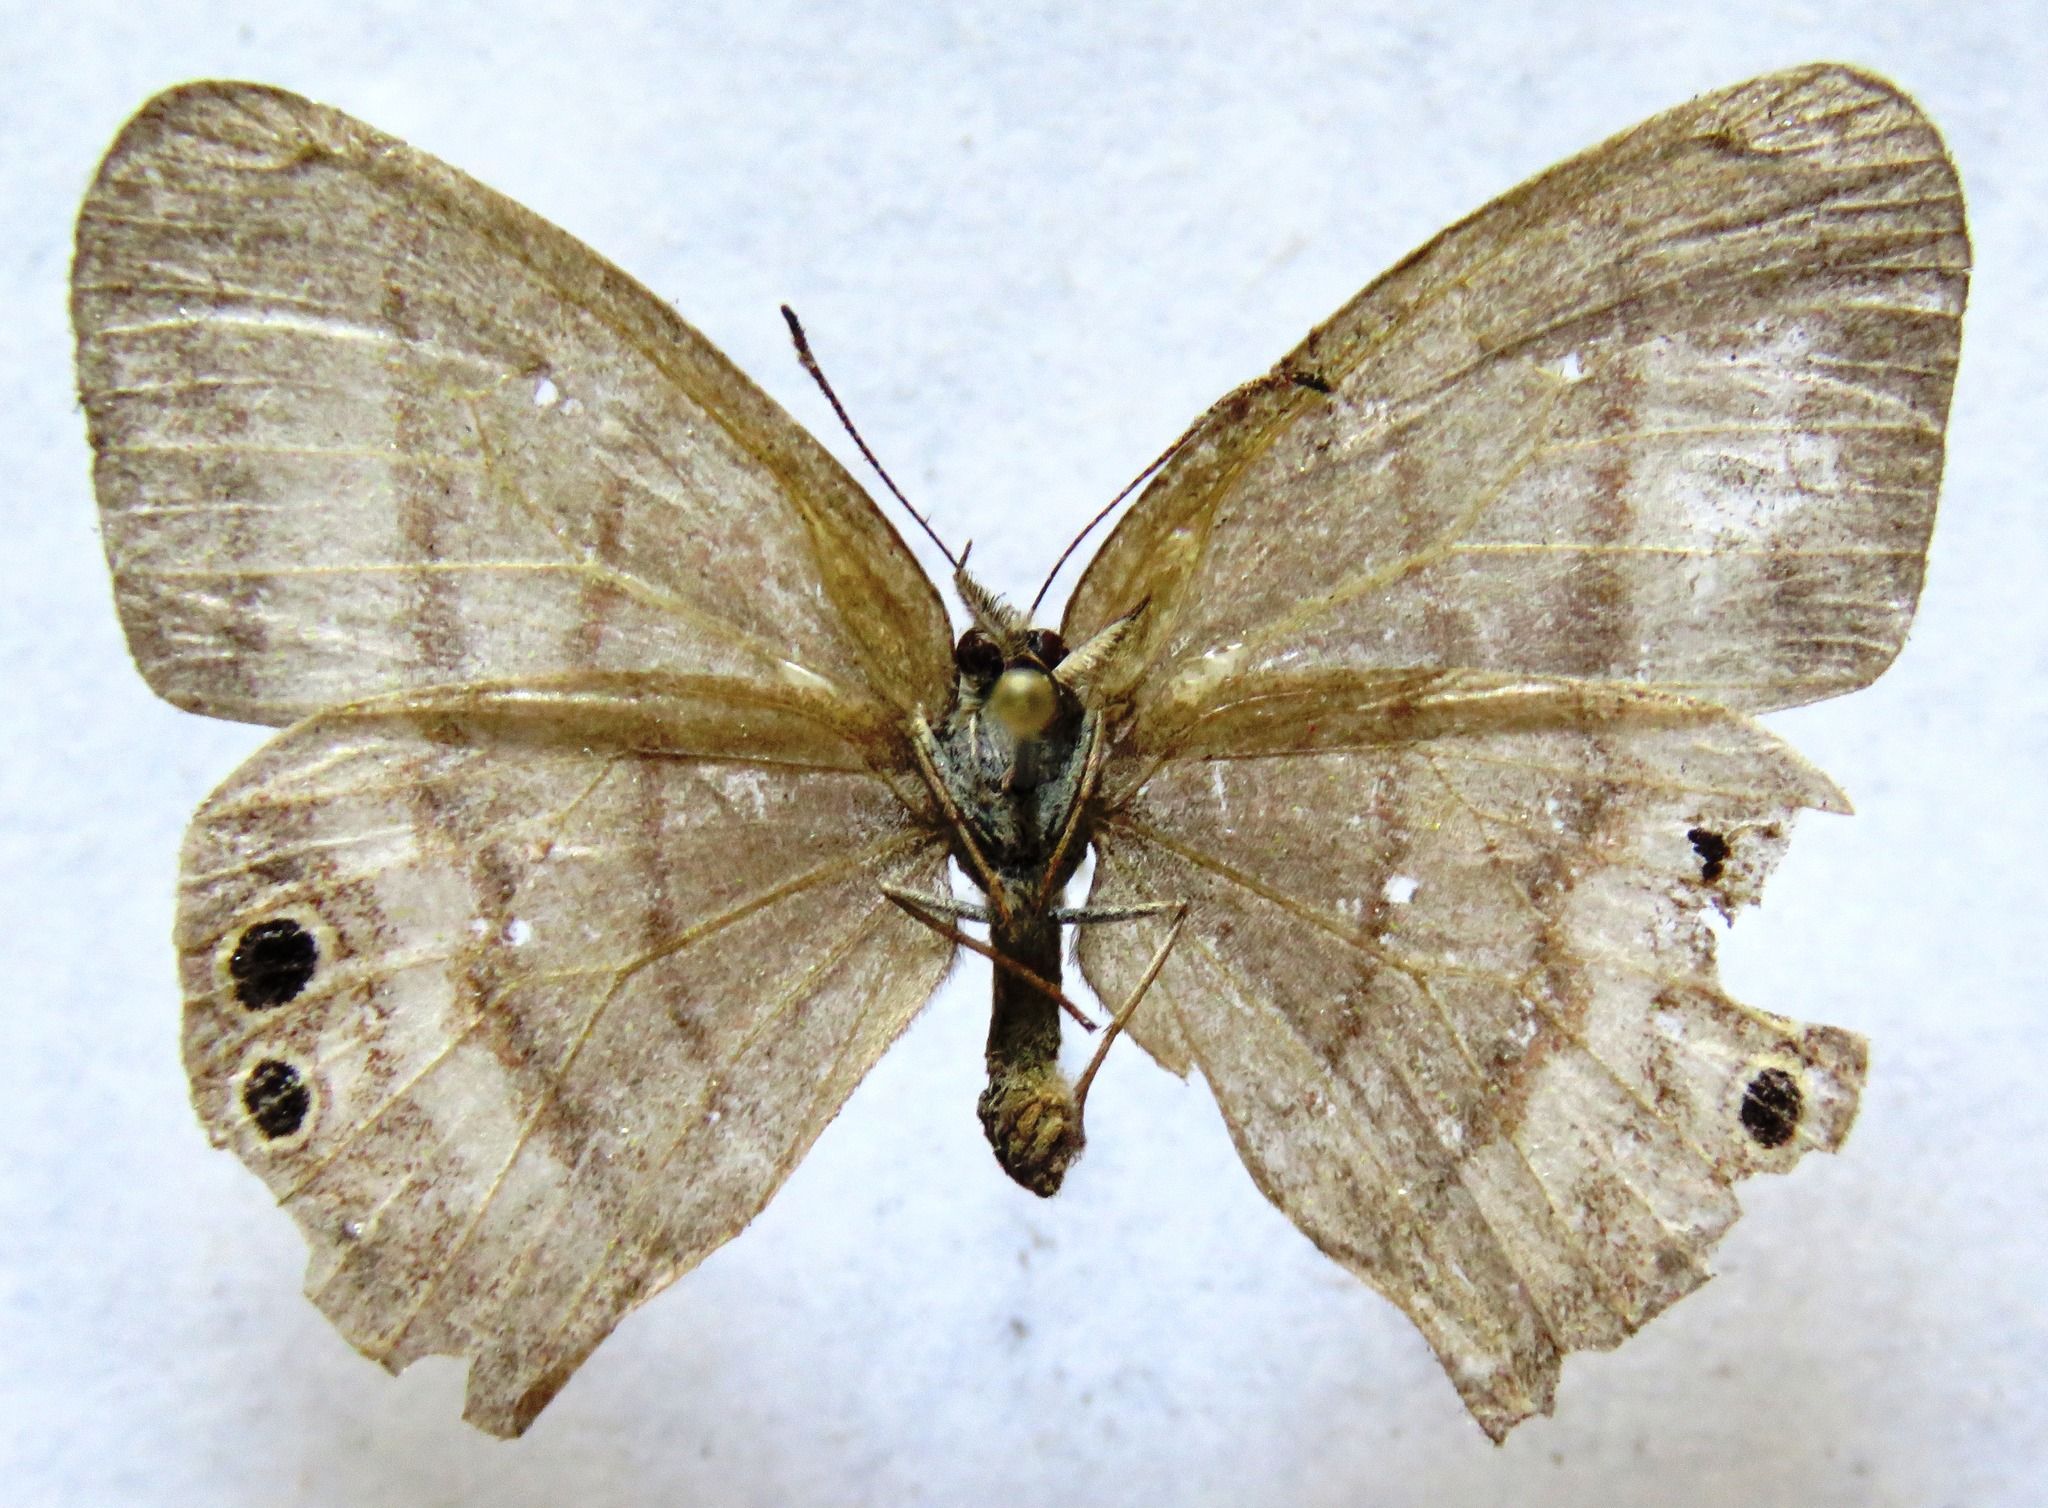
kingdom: Animalia
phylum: Arthropoda
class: Insecta
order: Lepidoptera
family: Nymphalidae
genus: Euptychia
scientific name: Euptychia
